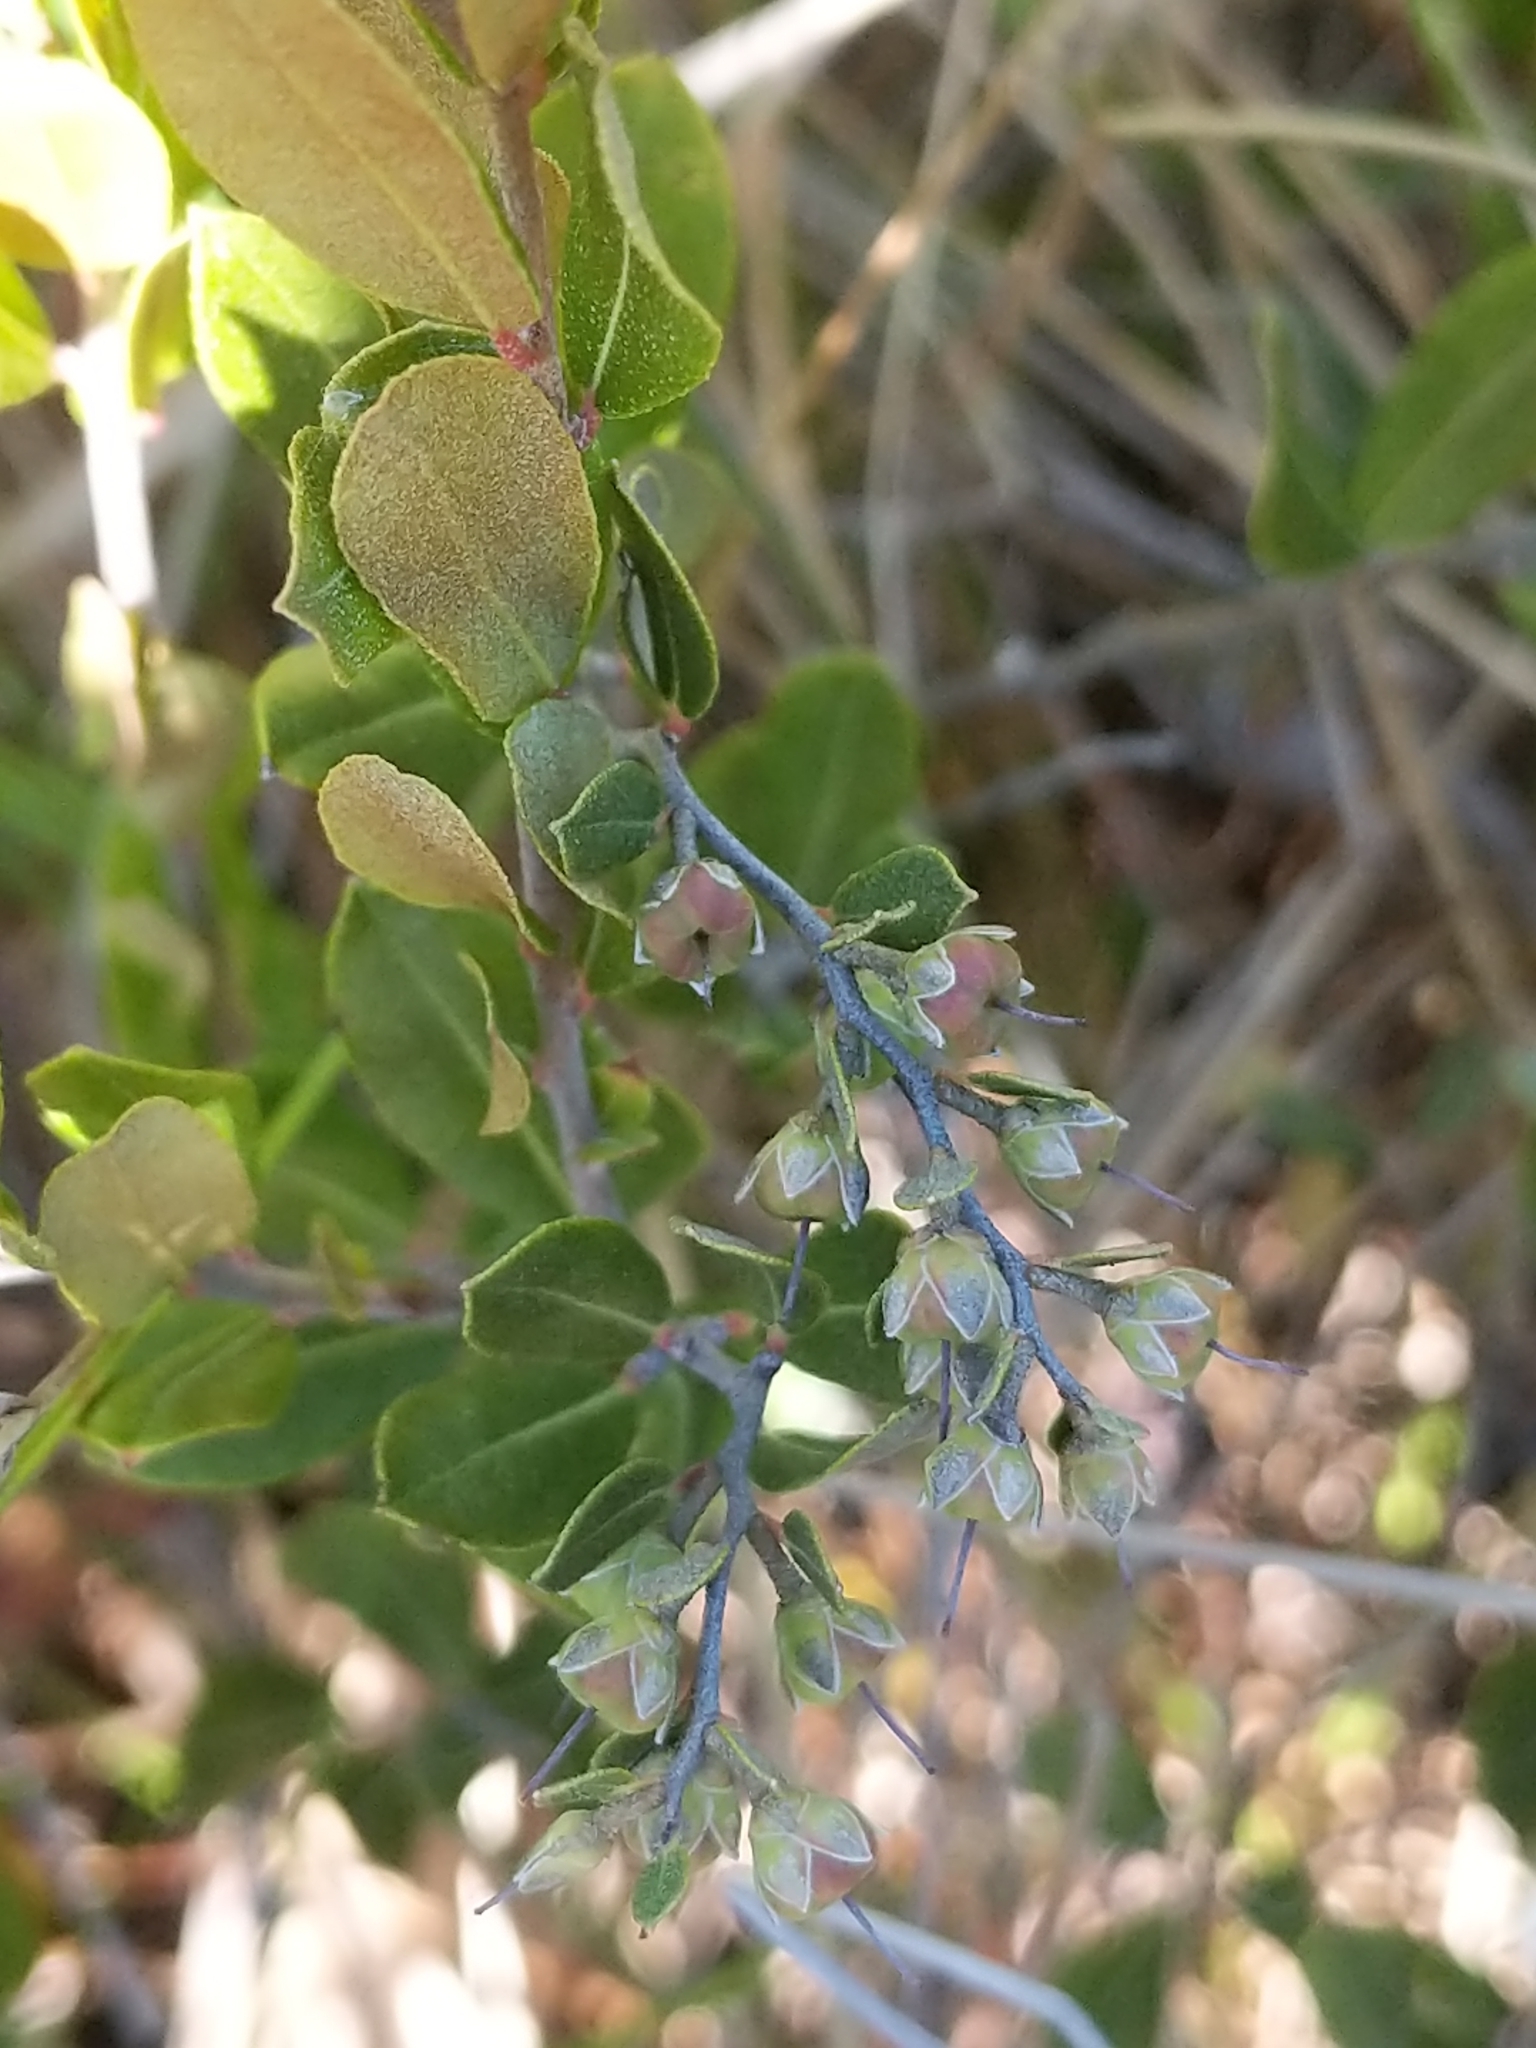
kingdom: Plantae
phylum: Tracheophyta
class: Magnoliopsida
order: Ericales
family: Ericaceae
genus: Chamaedaphne
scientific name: Chamaedaphne calyculata
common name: Leatherleaf
